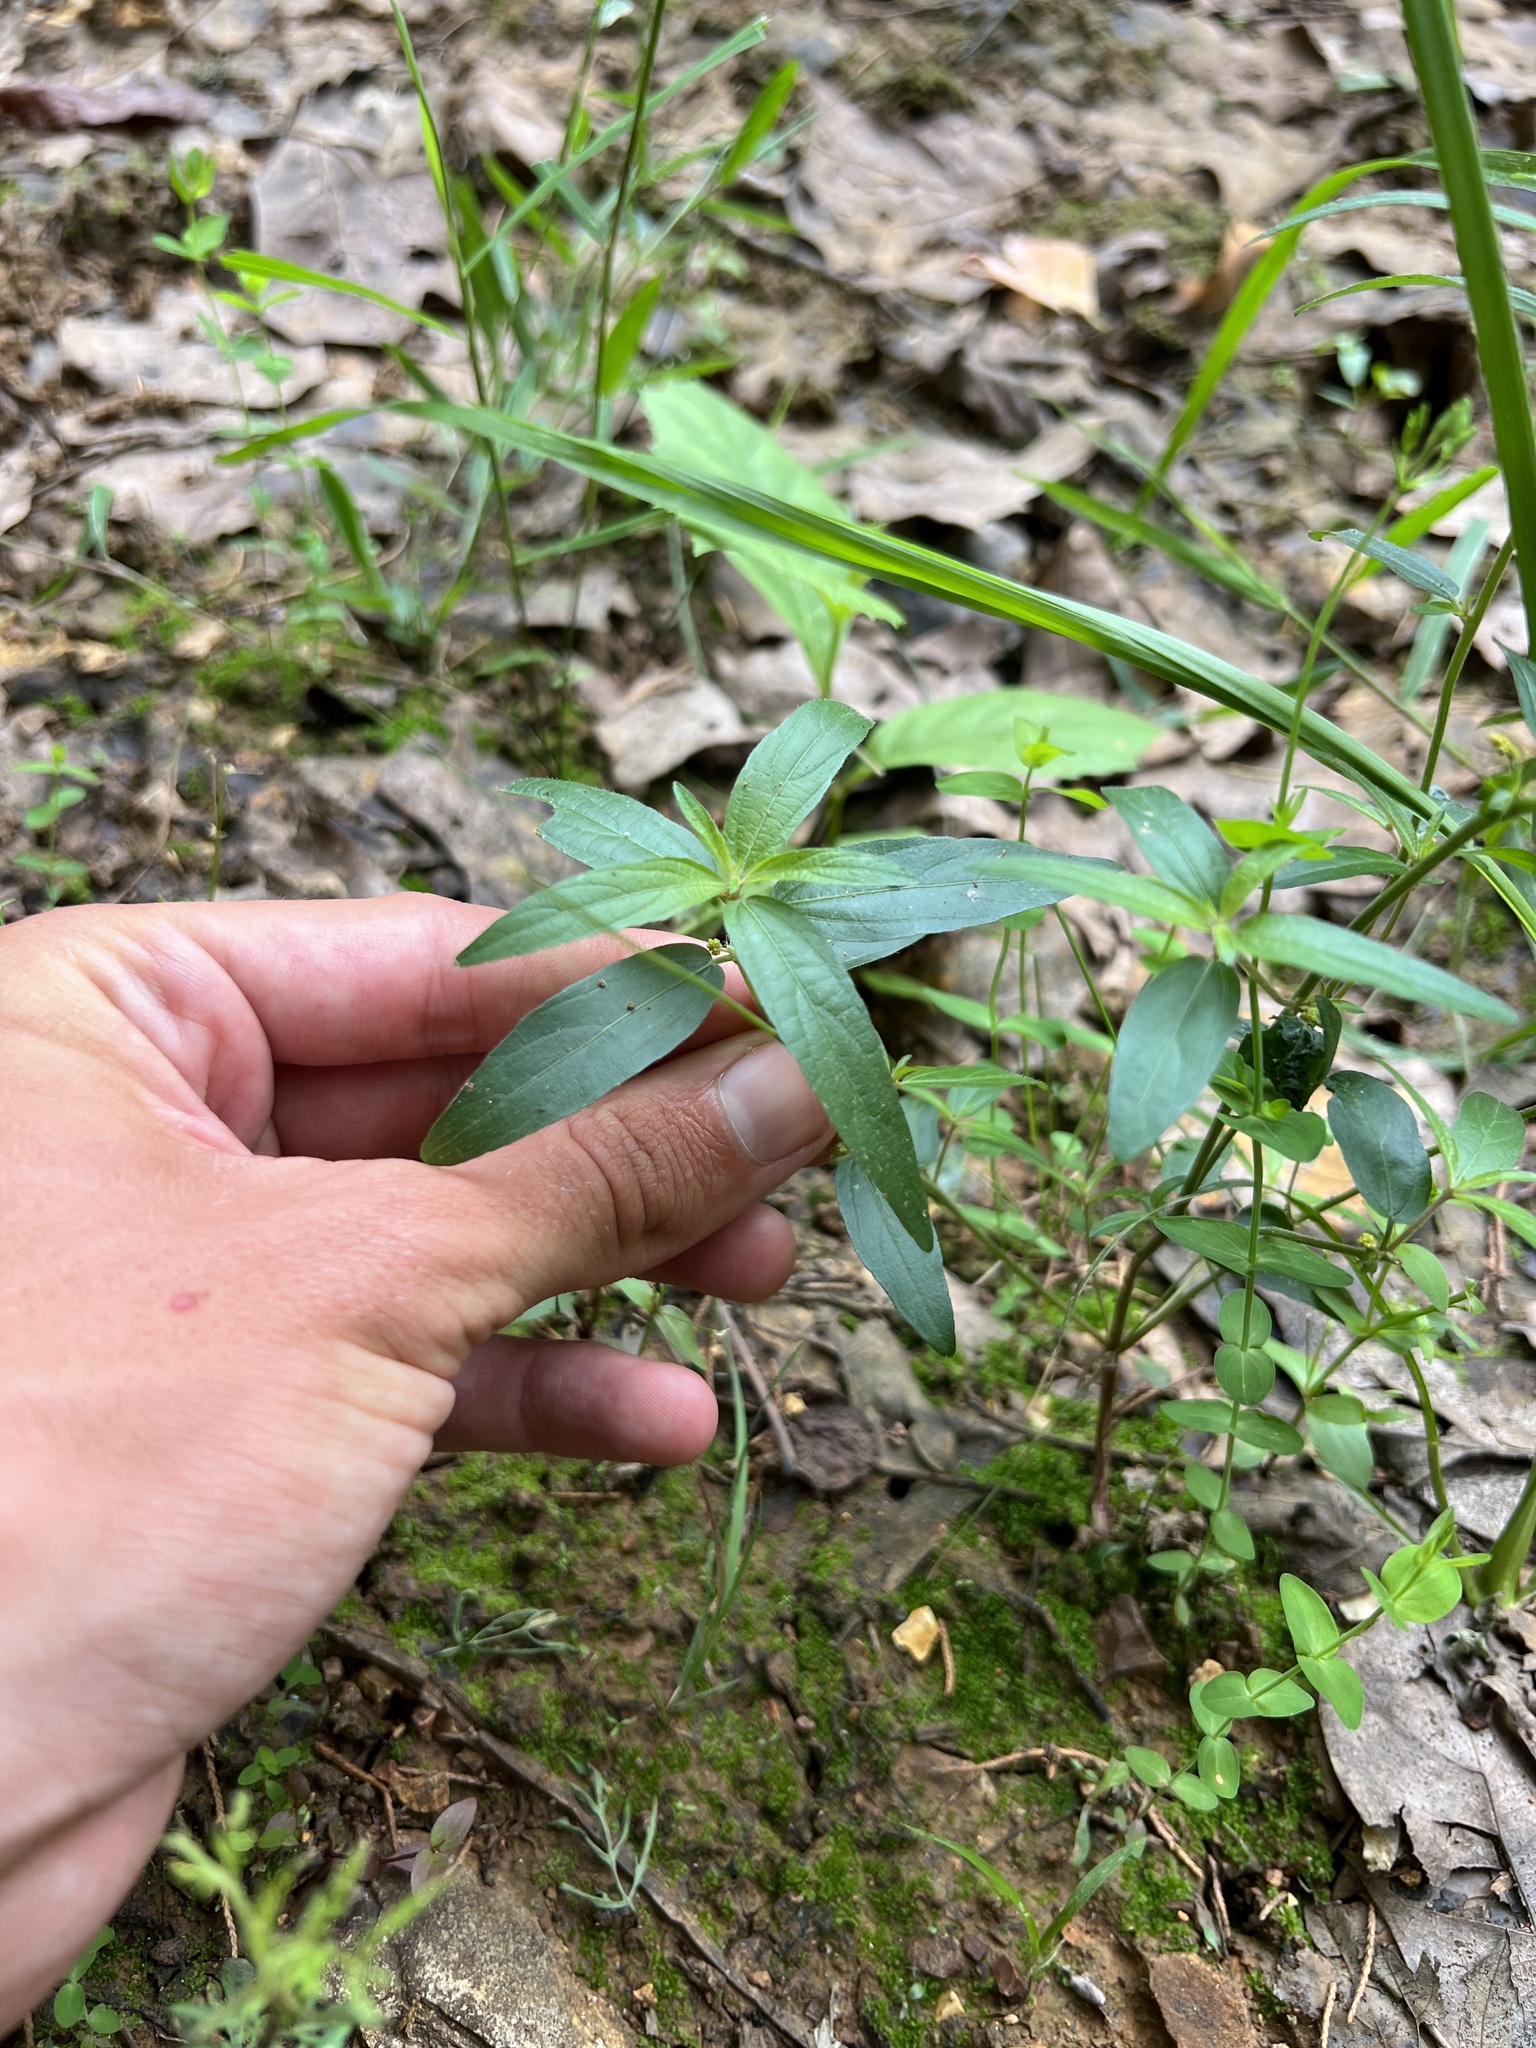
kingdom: Plantae
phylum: Tracheophyta
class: Magnoliopsida
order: Malpighiales
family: Euphorbiaceae
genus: Acalypha
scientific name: Acalypha monococca
